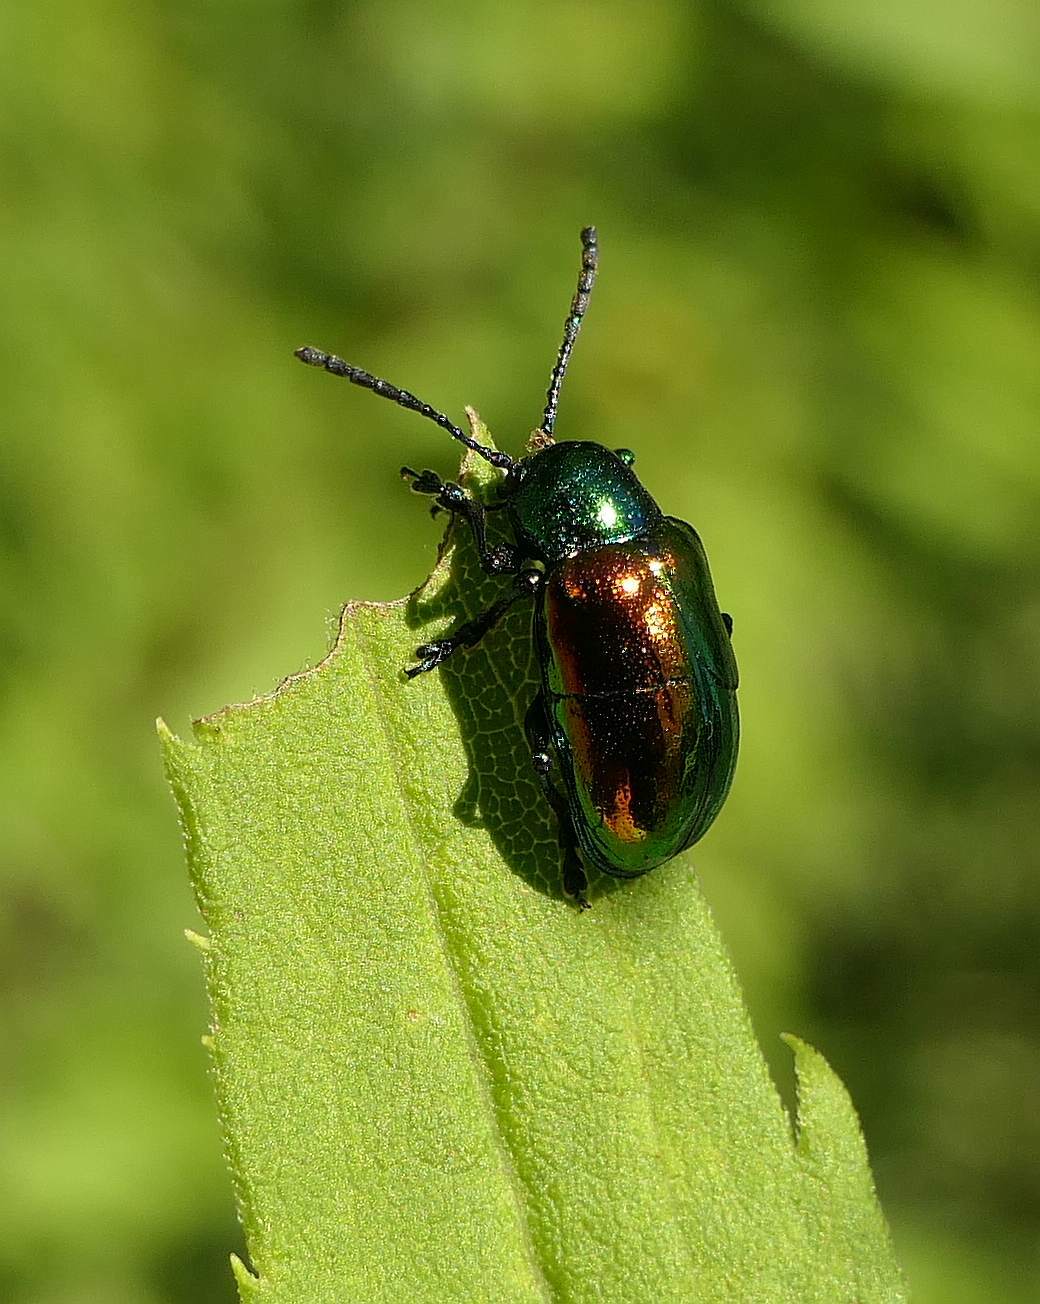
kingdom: Animalia
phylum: Arthropoda
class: Insecta
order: Coleoptera
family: Chrysomelidae
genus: Chrysochus
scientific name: Chrysochus auratus
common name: Dogbane leaf beetle
